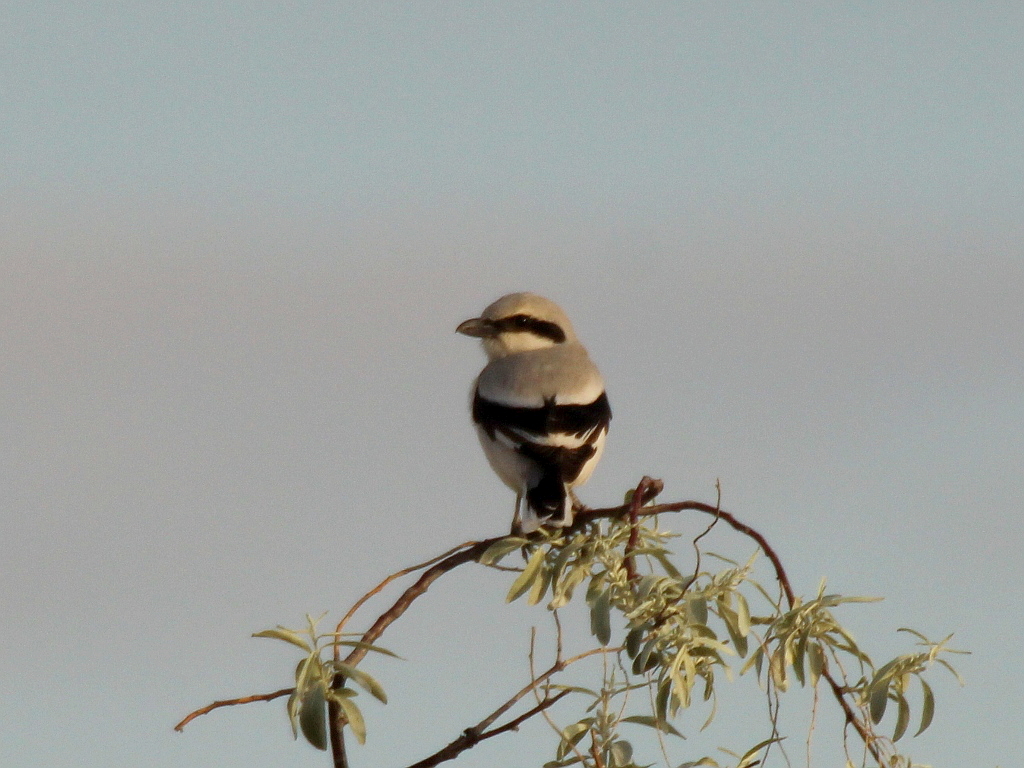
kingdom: Animalia
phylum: Chordata
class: Aves
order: Passeriformes
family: Laniidae
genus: Lanius
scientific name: Lanius excubitor
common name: Great grey shrike
